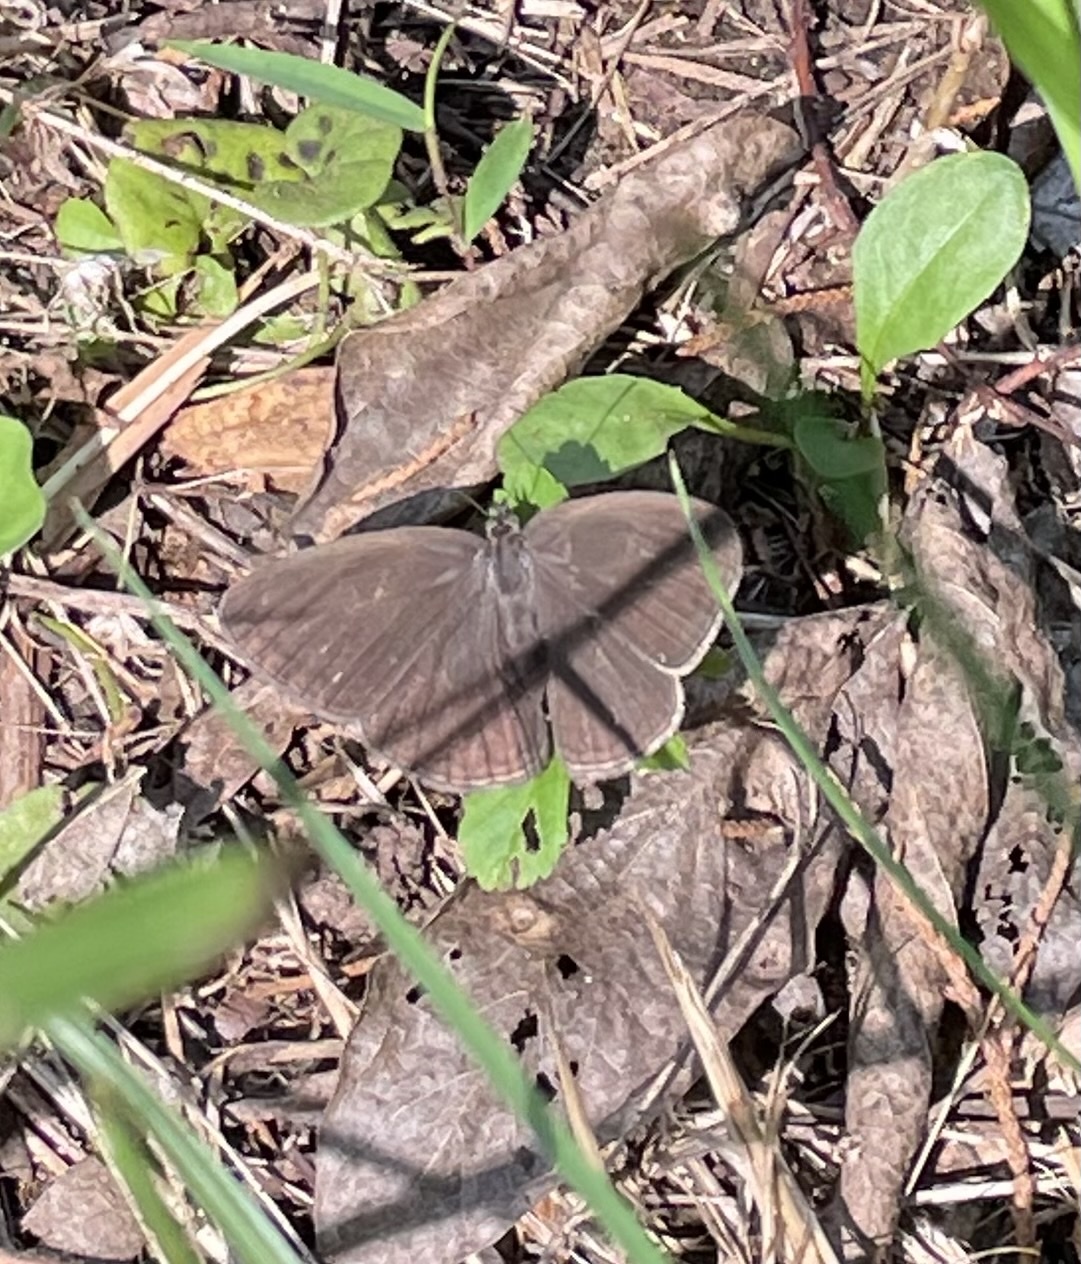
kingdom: Animalia
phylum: Arthropoda
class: Insecta
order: Lepidoptera
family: Nymphalidae
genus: Hermeuptychia
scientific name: Hermeuptychia hermes
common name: Hermes satyr
